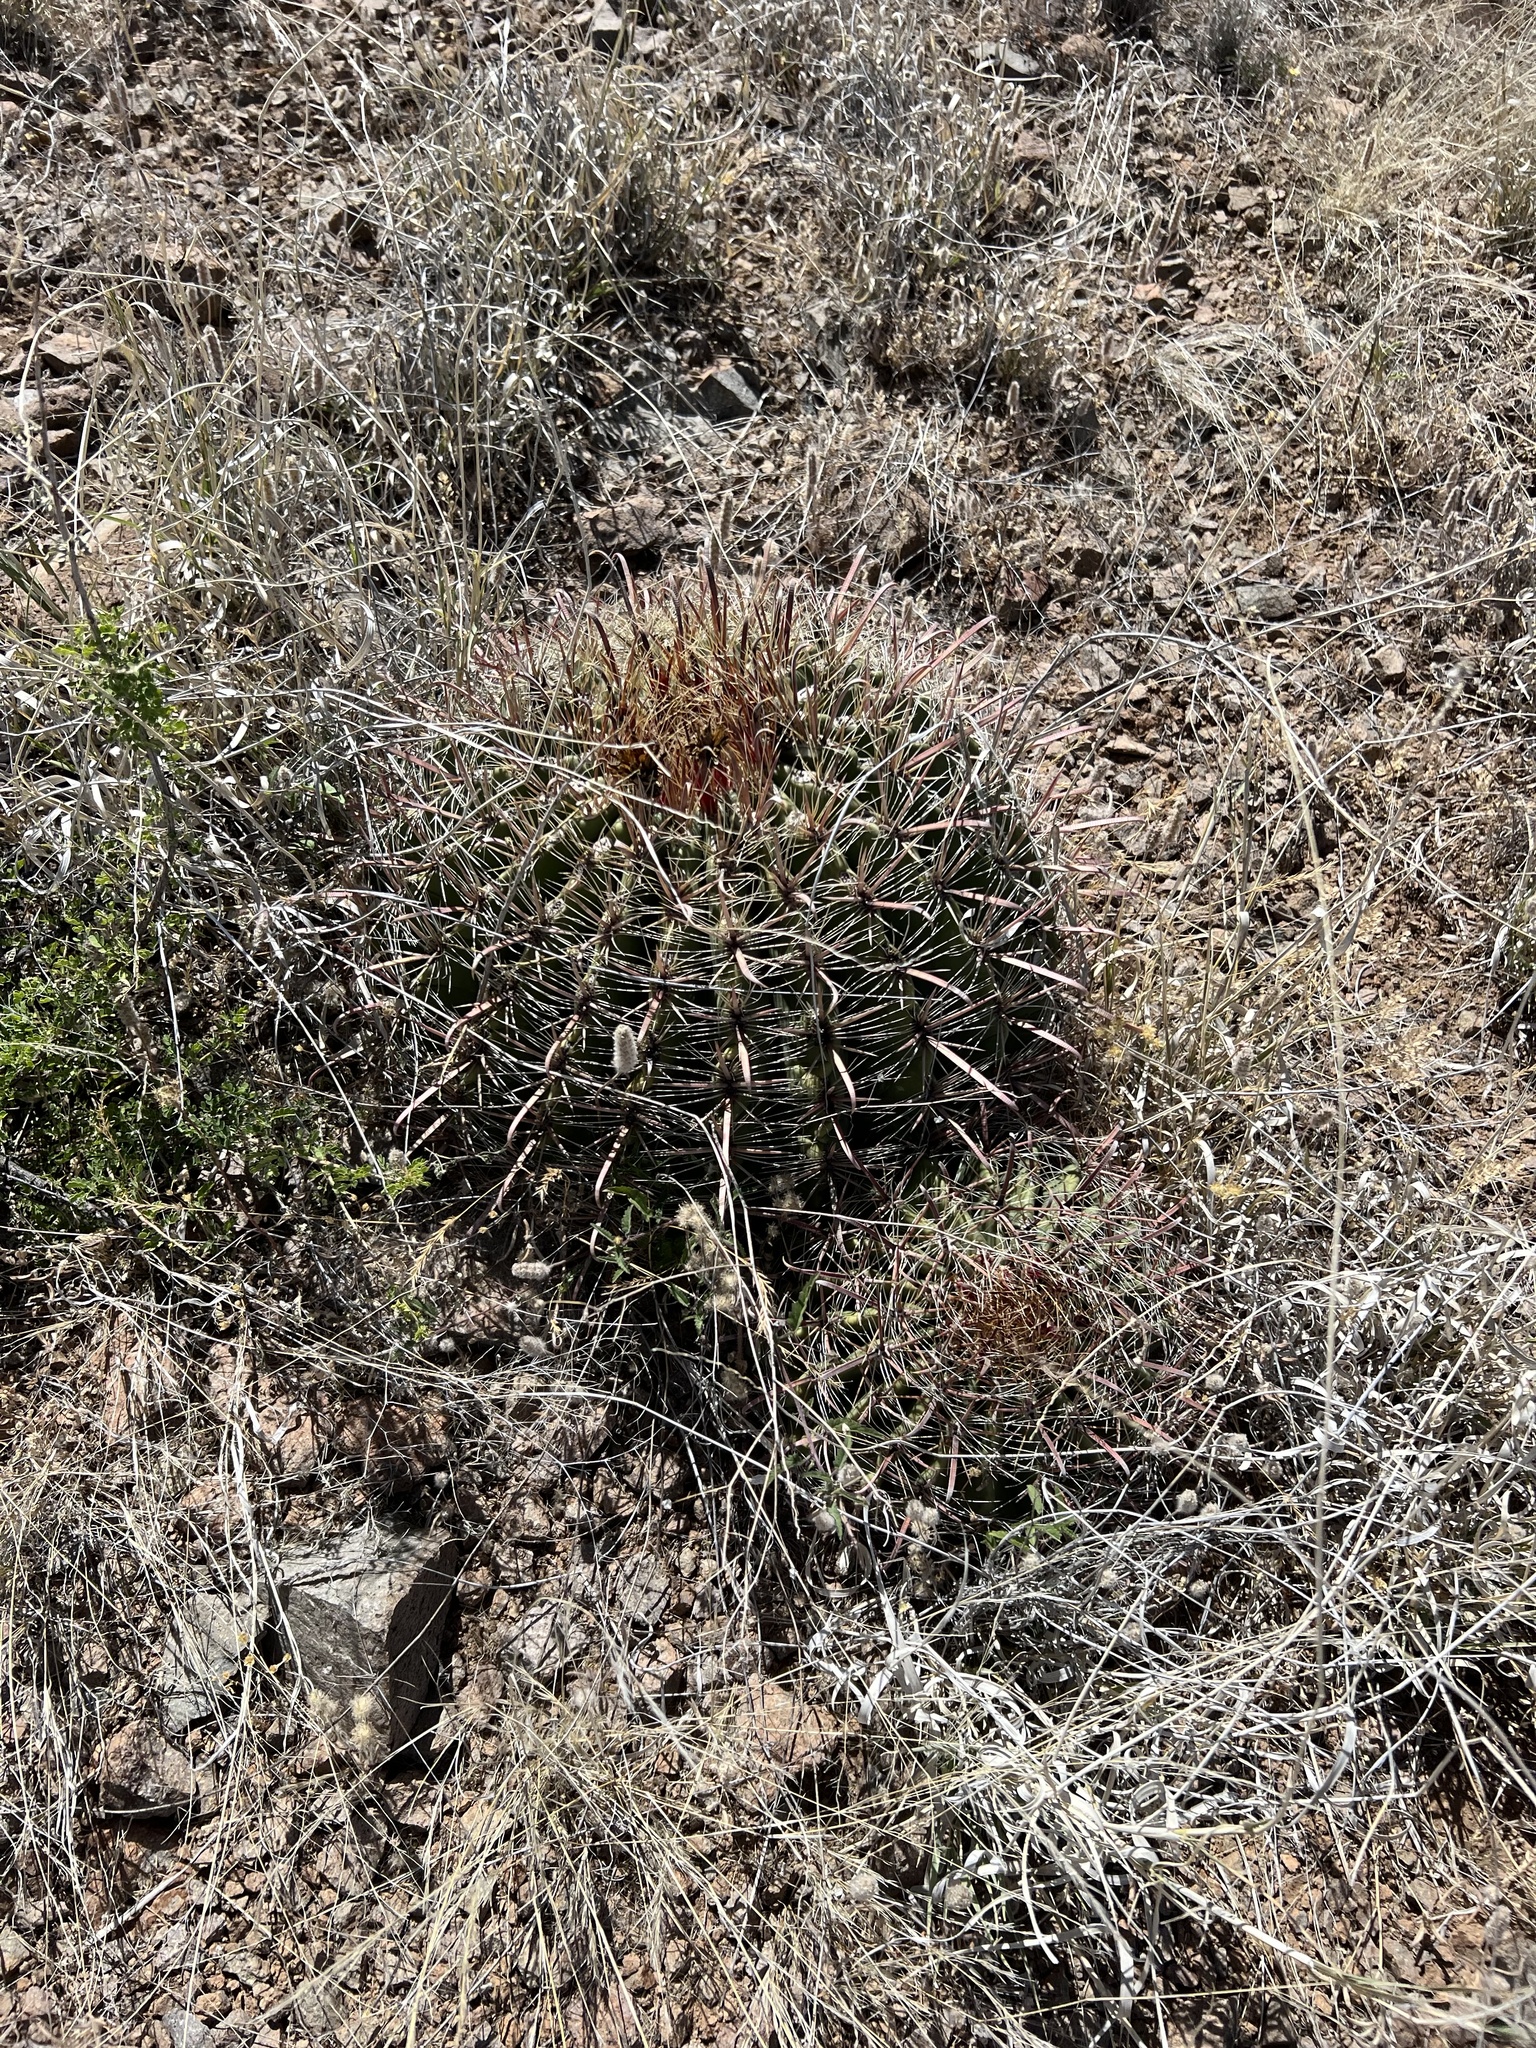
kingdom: Plantae
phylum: Tracheophyta
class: Magnoliopsida
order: Caryophyllales
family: Cactaceae
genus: Ferocactus
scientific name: Ferocactus wislizeni
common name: Candy barrel cactus
